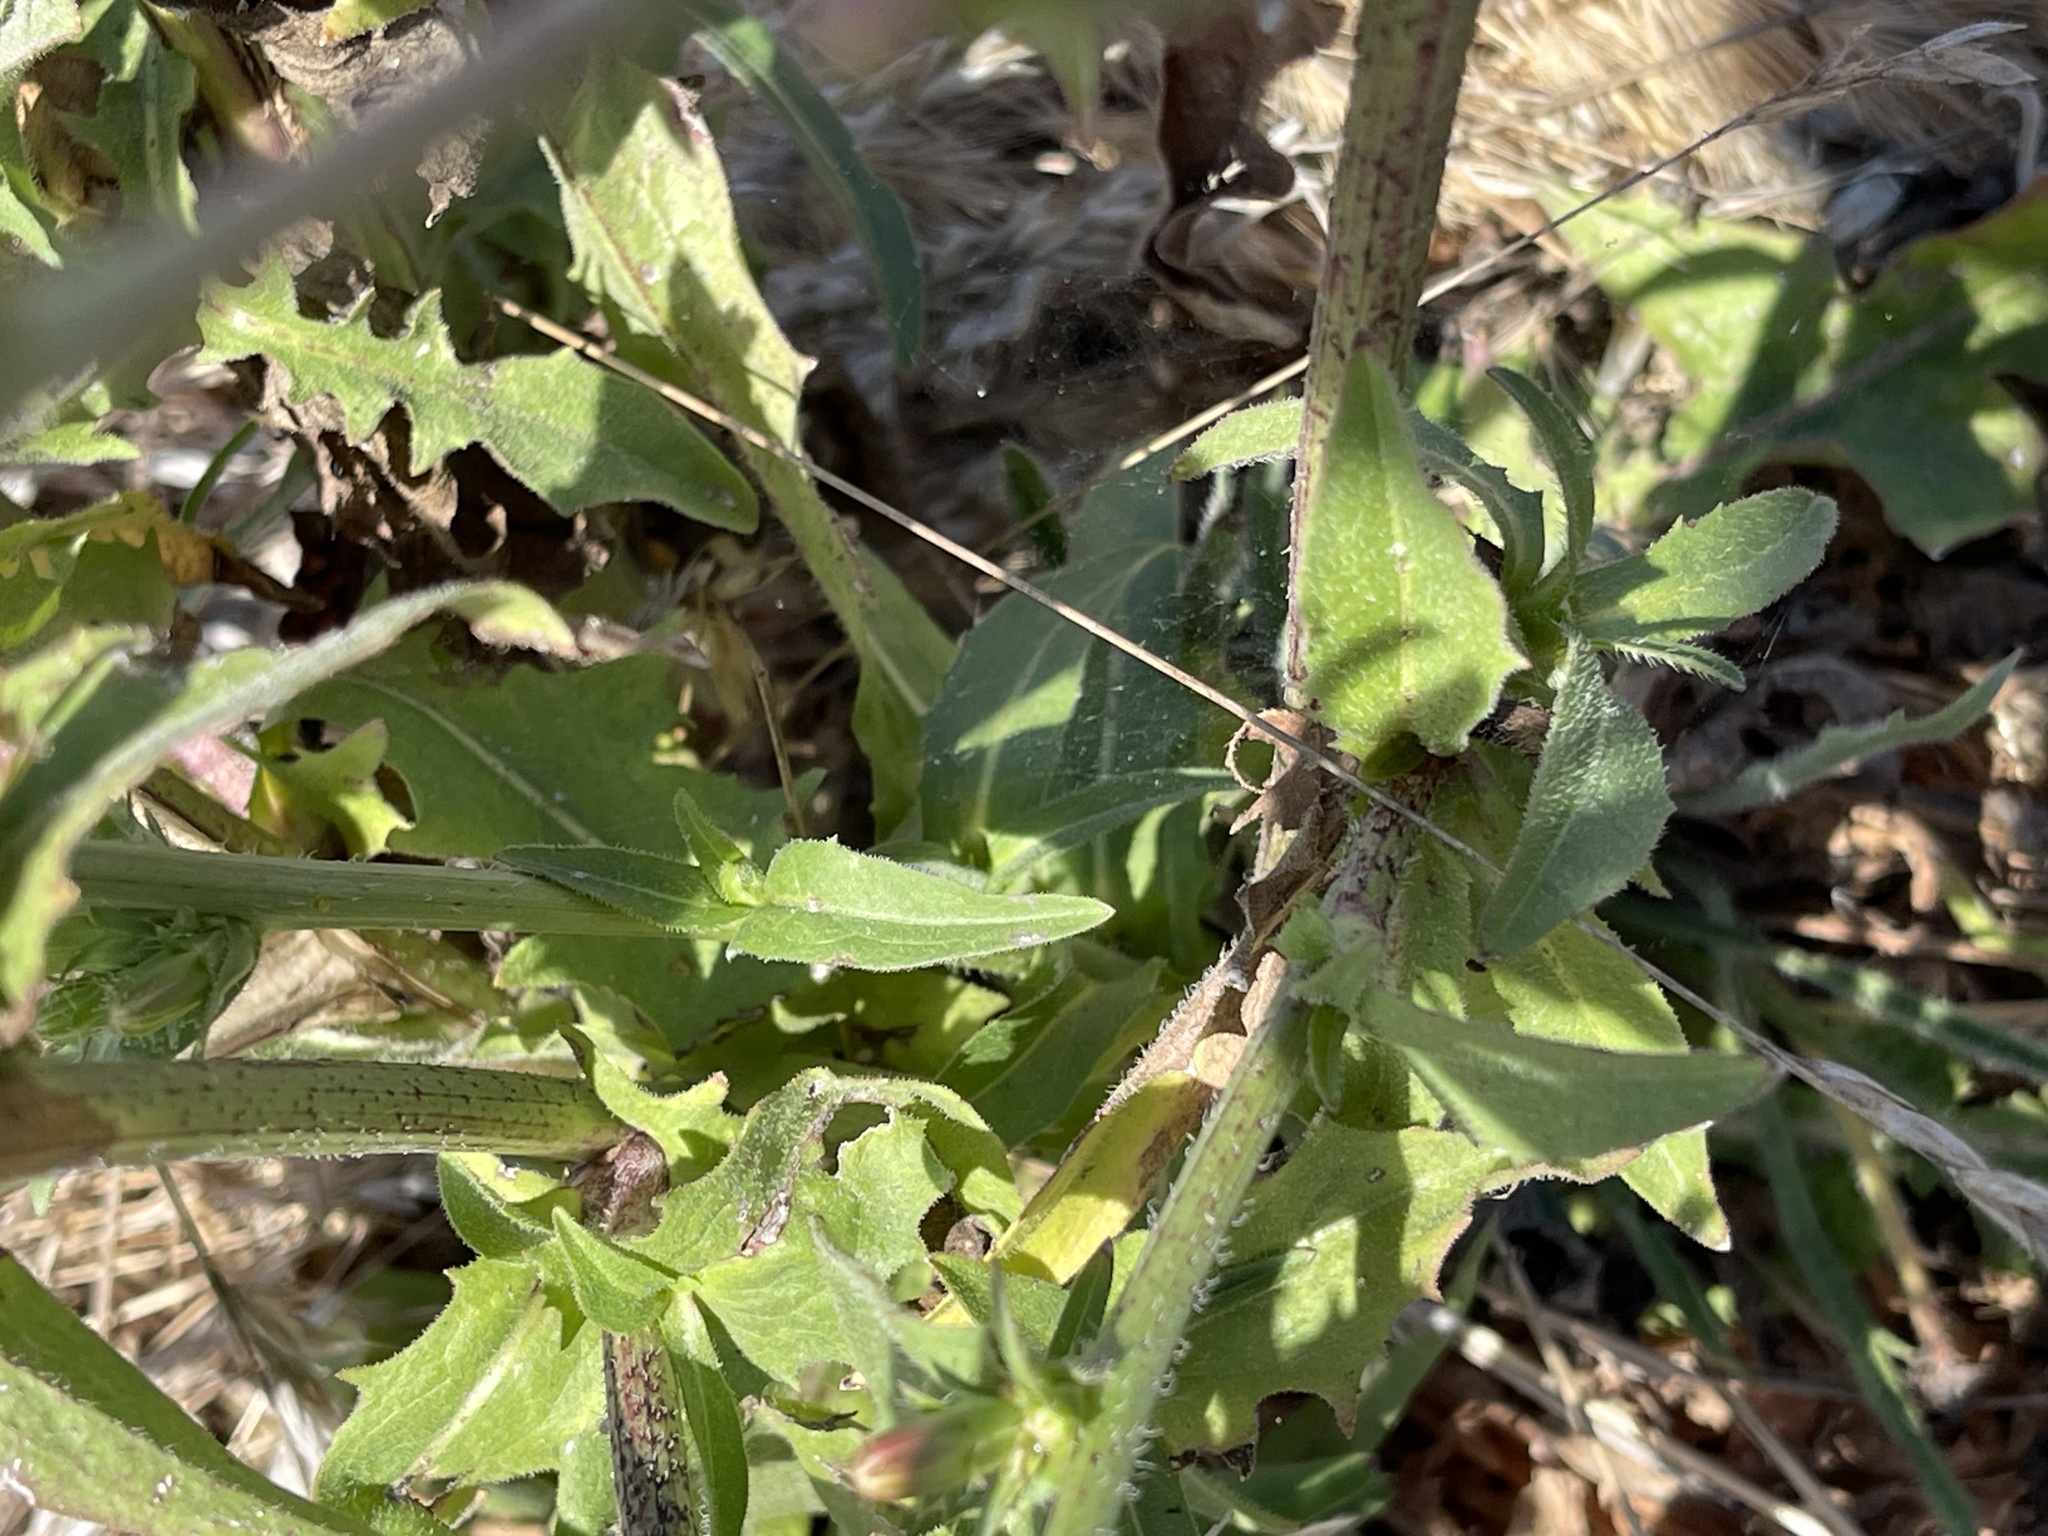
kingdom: Plantae
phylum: Tracheophyta
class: Magnoliopsida
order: Asterales
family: Asteraceae
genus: Cichorium
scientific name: Cichorium intybus
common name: Chicory
